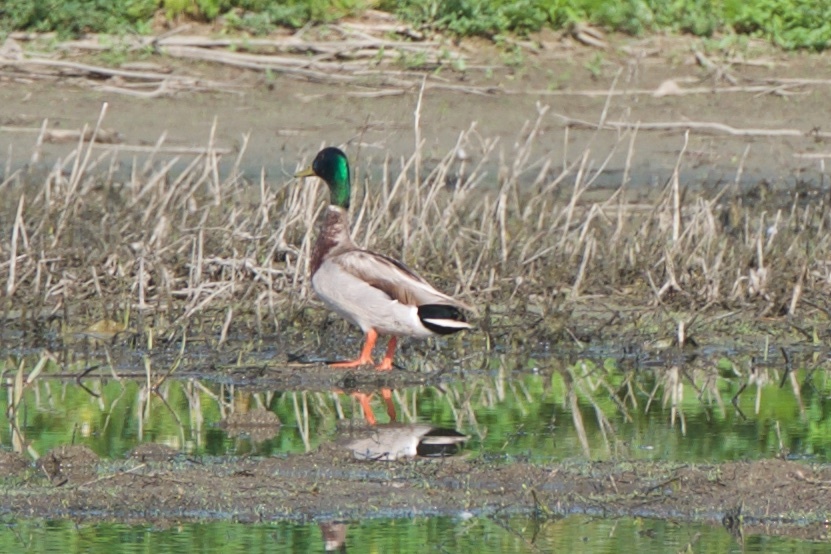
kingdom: Animalia
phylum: Chordata
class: Aves
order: Anseriformes
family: Anatidae
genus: Anas
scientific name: Anas platyrhynchos
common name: Mallard
